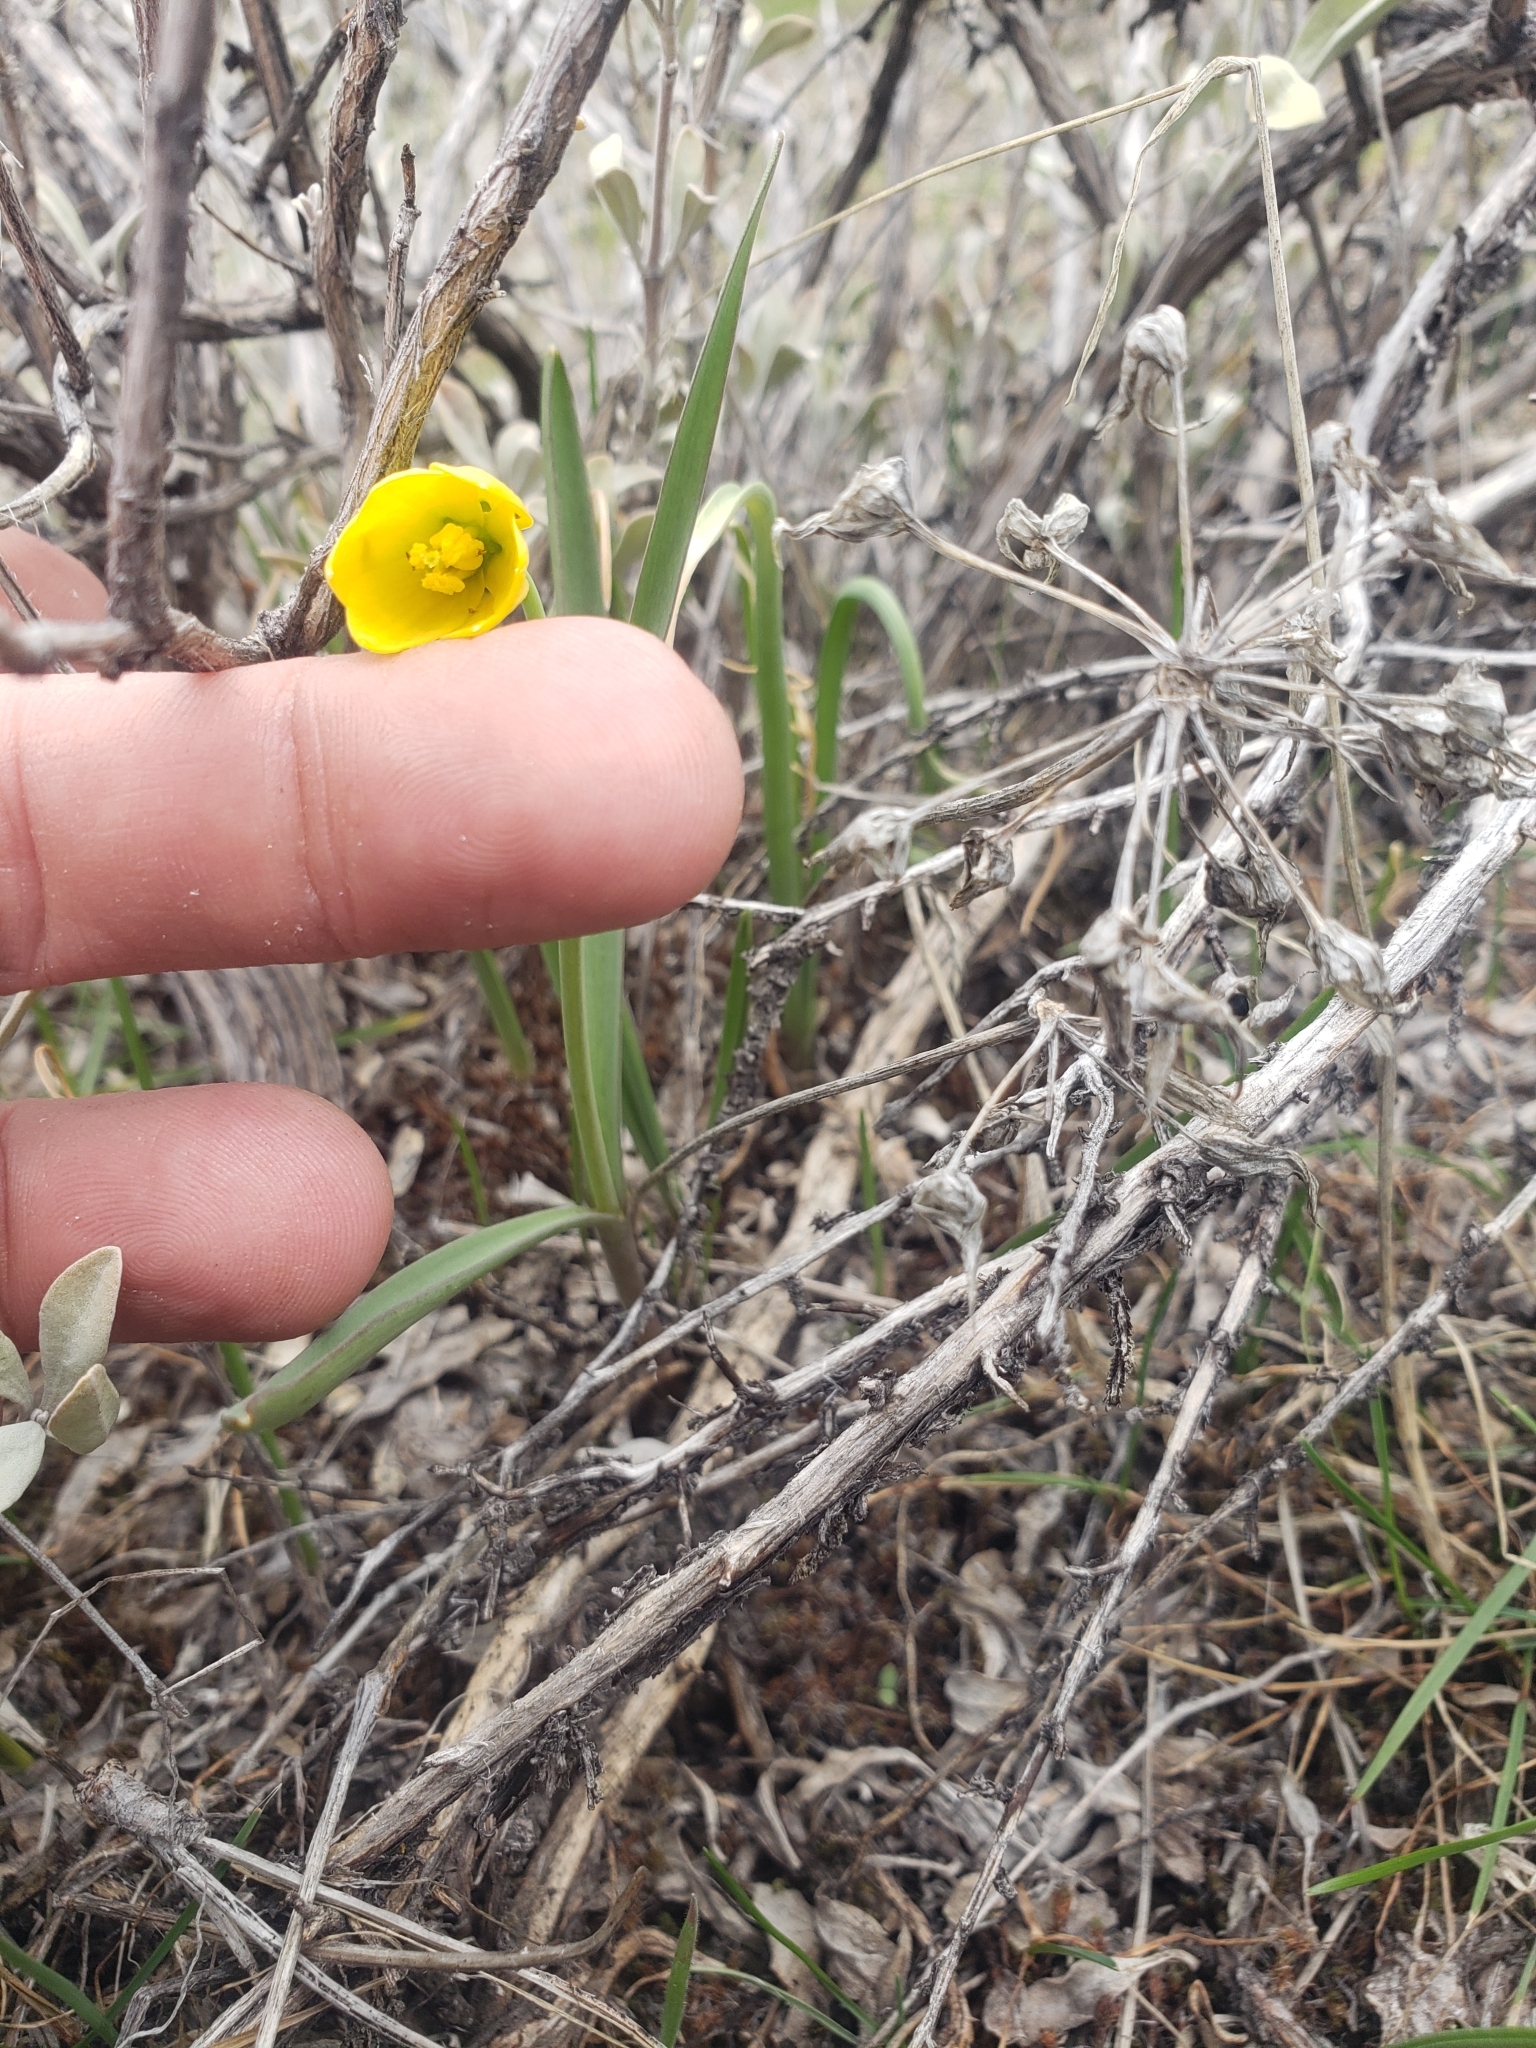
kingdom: Plantae
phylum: Tracheophyta
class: Liliopsida
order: Liliales
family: Liliaceae
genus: Fritillaria
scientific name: Fritillaria pudica
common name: Yellow fritillary
